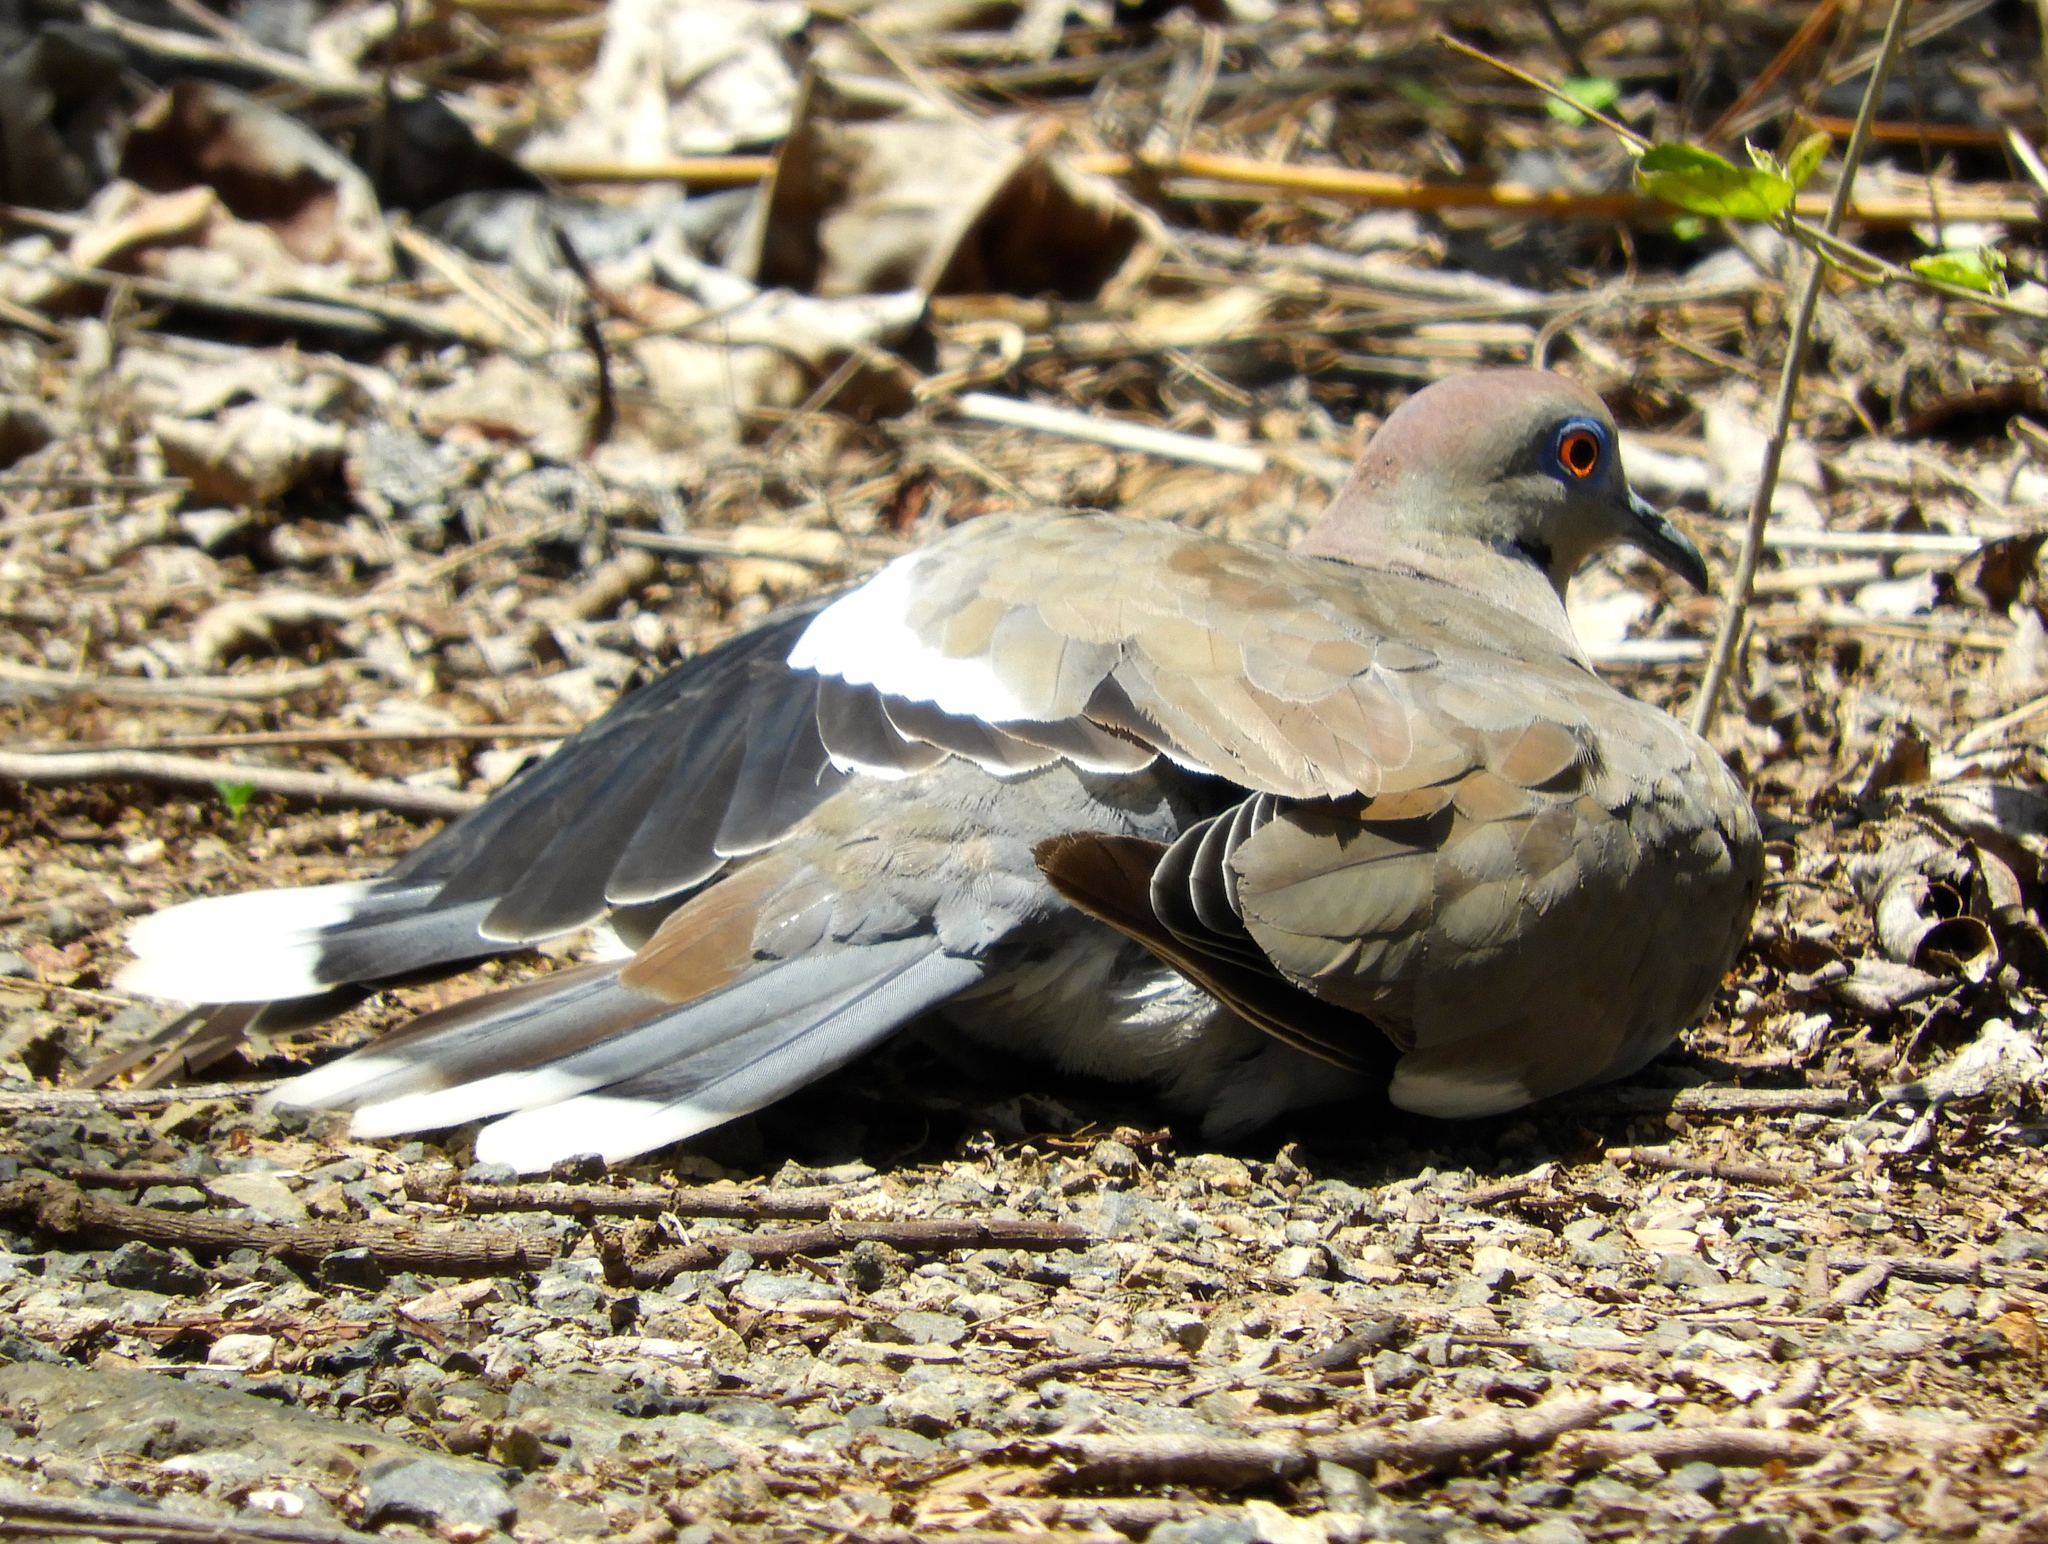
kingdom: Animalia
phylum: Chordata
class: Aves
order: Columbiformes
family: Columbidae
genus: Zenaida
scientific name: Zenaida asiatica
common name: White-winged dove
